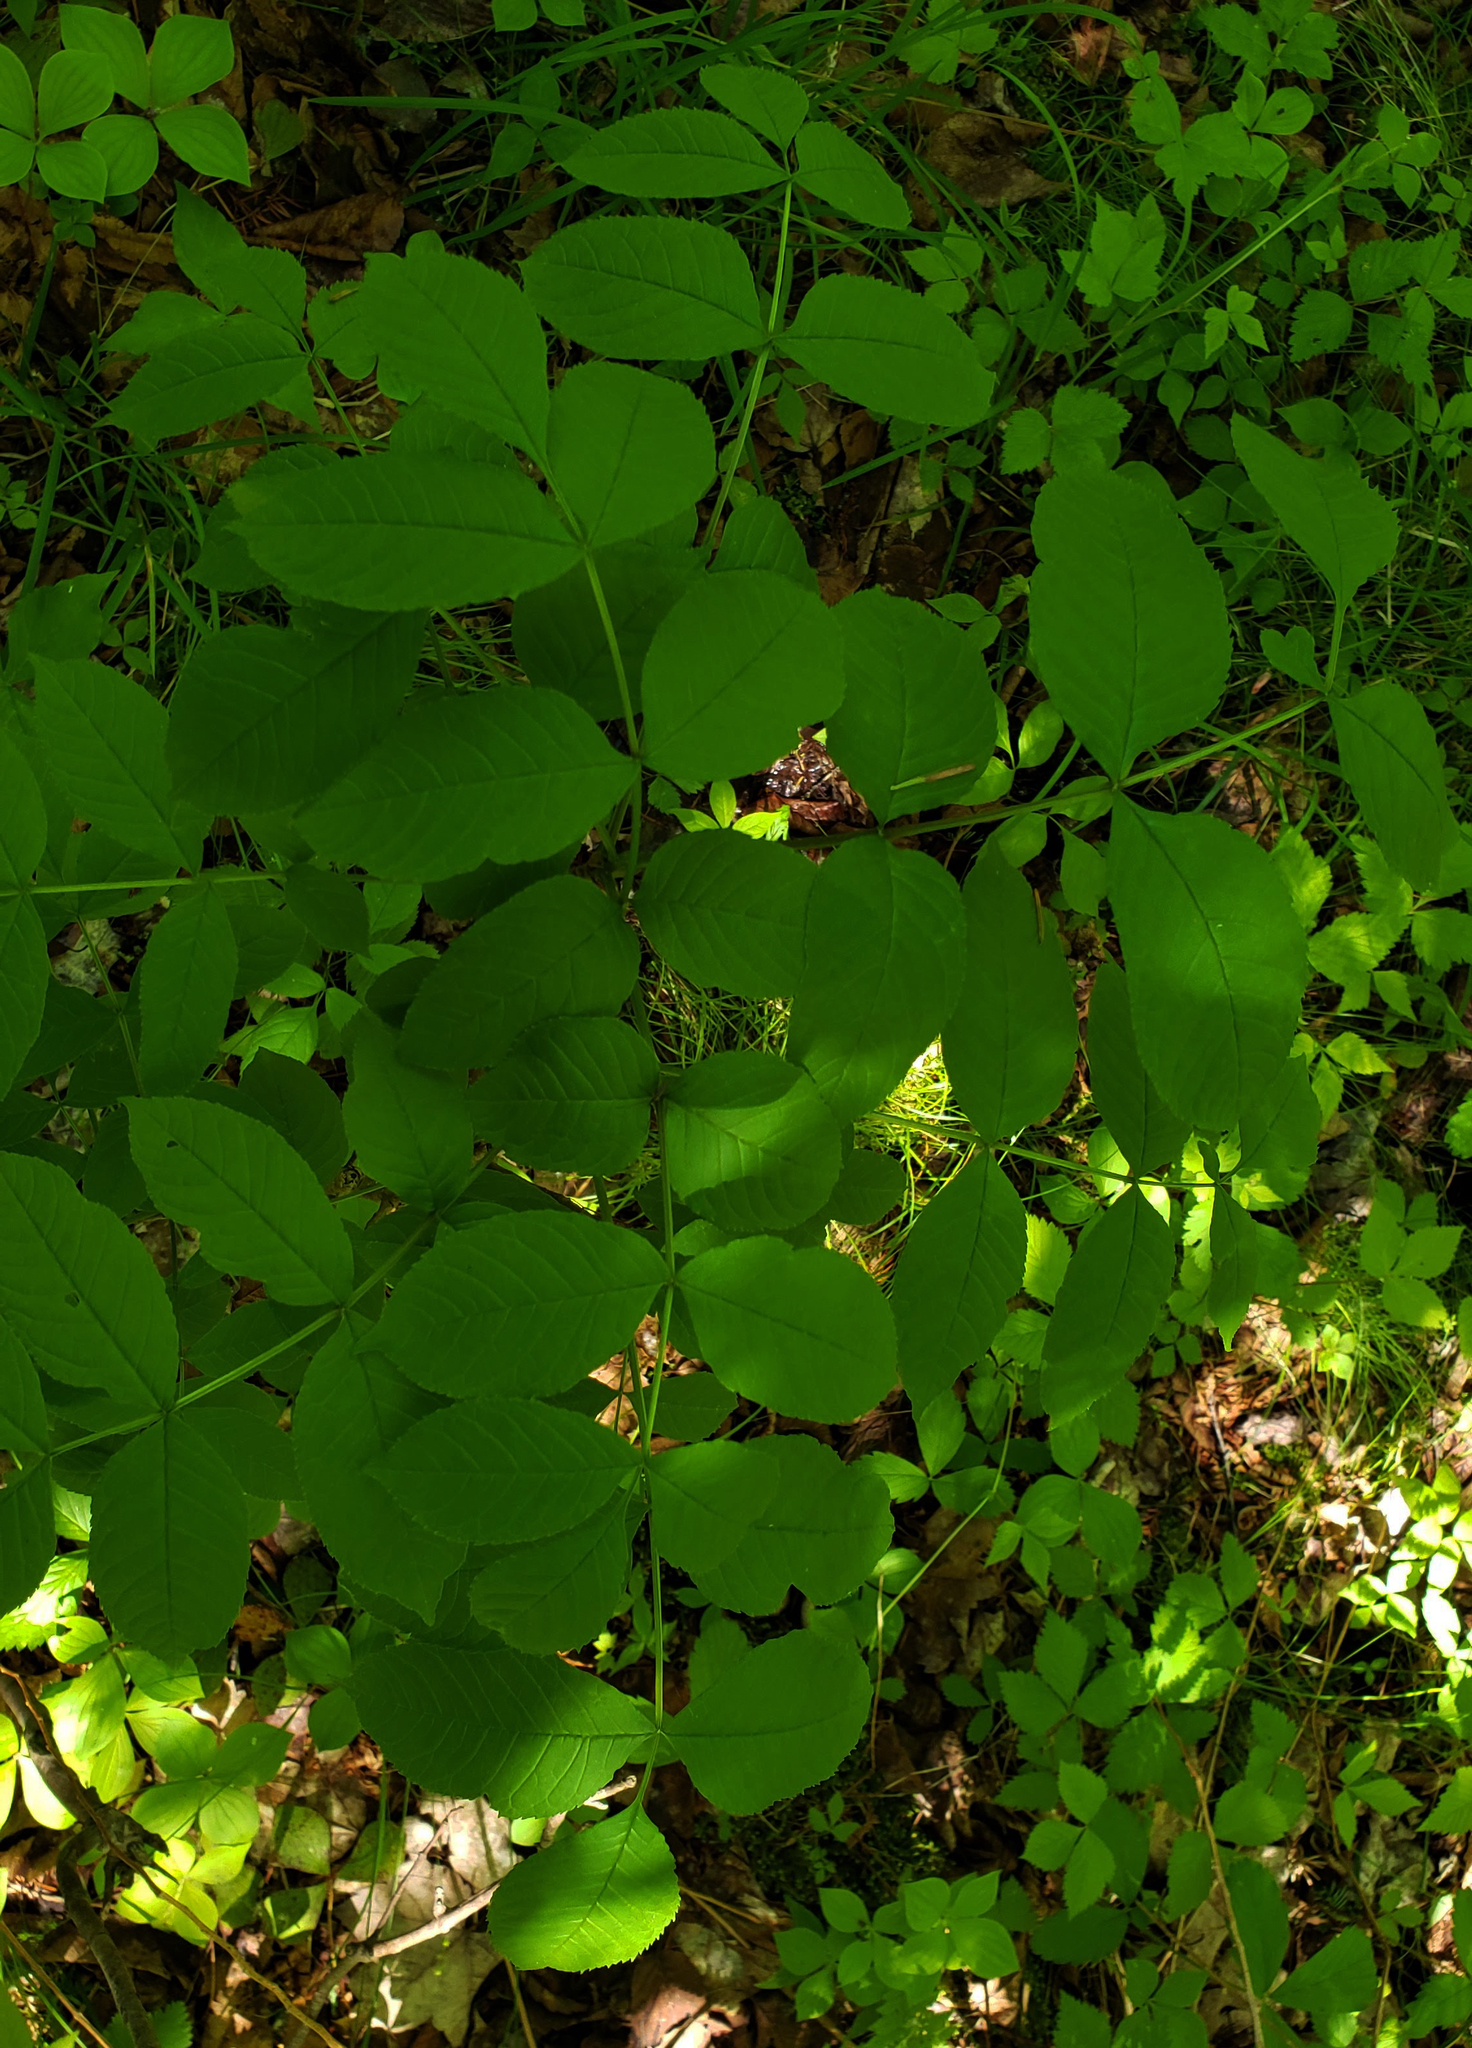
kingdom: Plantae
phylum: Tracheophyta
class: Magnoliopsida
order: Lamiales
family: Oleaceae
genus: Fraxinus
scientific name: Fraxinus nigra
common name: Black ash
